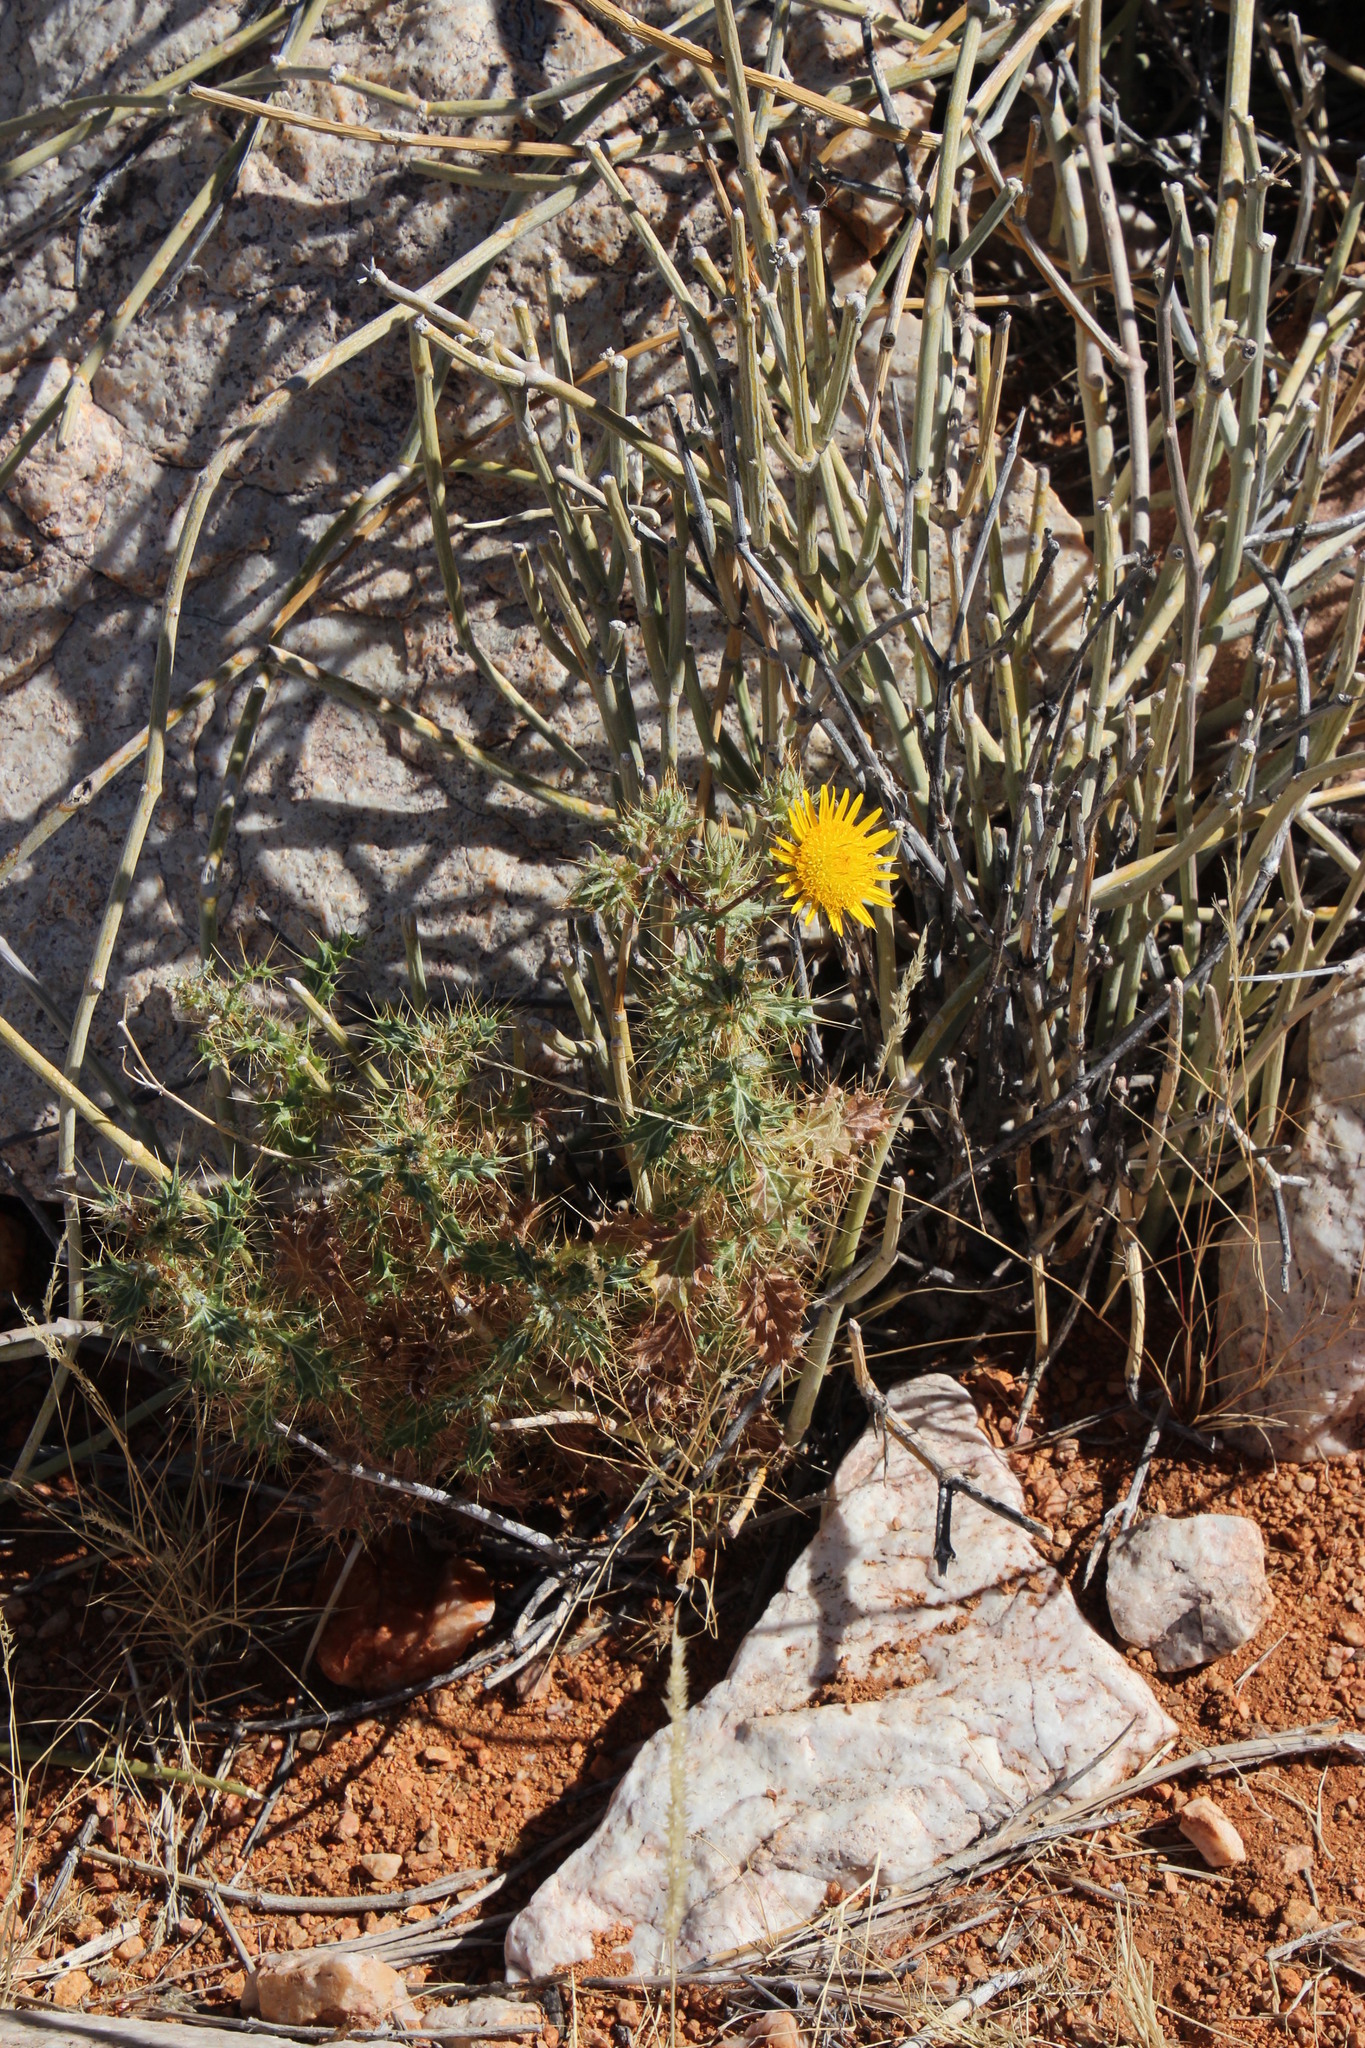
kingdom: Plantae
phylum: Tracheophyta
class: Magnoliopsida
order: Asterales
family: Asteraceae
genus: Berkheya
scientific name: Berkheya spinosissima
